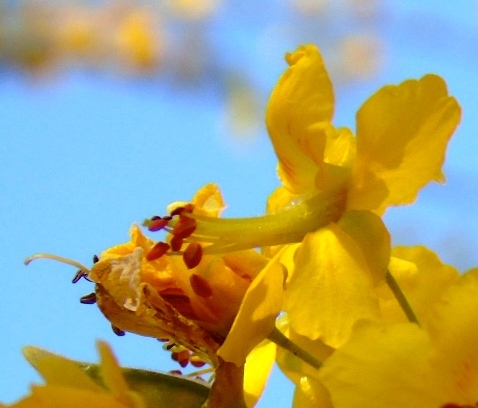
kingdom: Plantae
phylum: Tracheophyta
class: Magnoliopsida
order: Fabales
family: Fabaceae
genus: Haematoxylum
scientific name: Haematoxylum brasiletto
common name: Peachwood
